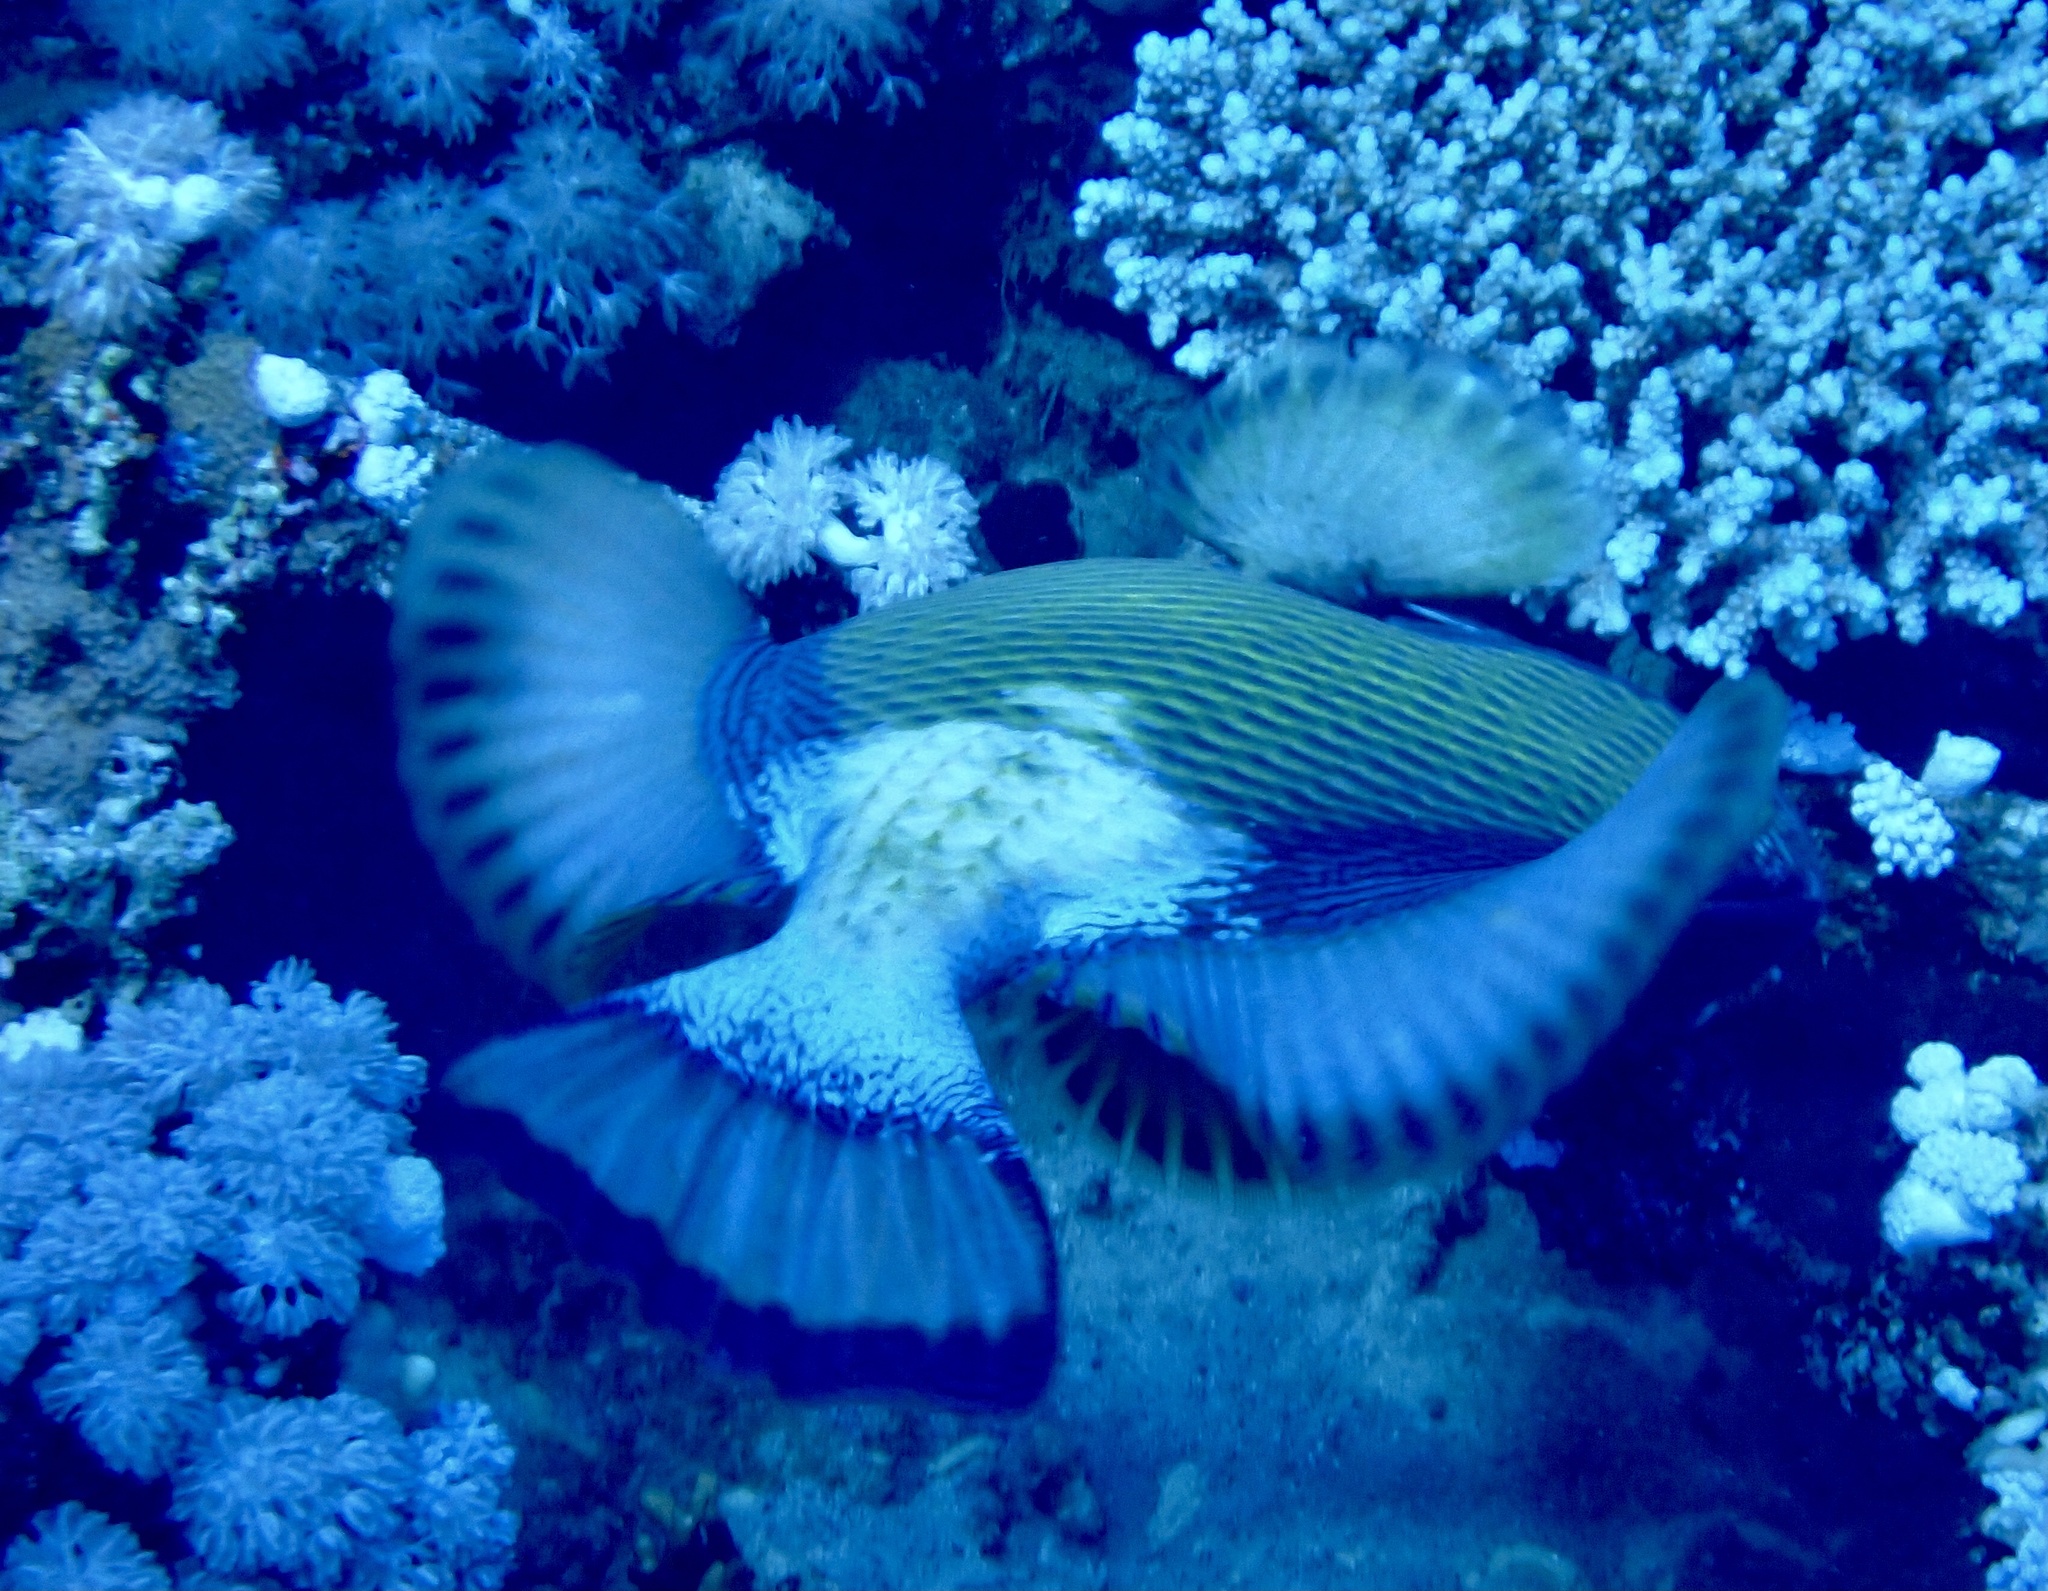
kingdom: Animalia
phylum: Chordata
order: Tetraodontiformes
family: Balistidae
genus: Balistoides
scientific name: Balistoides viridescens
